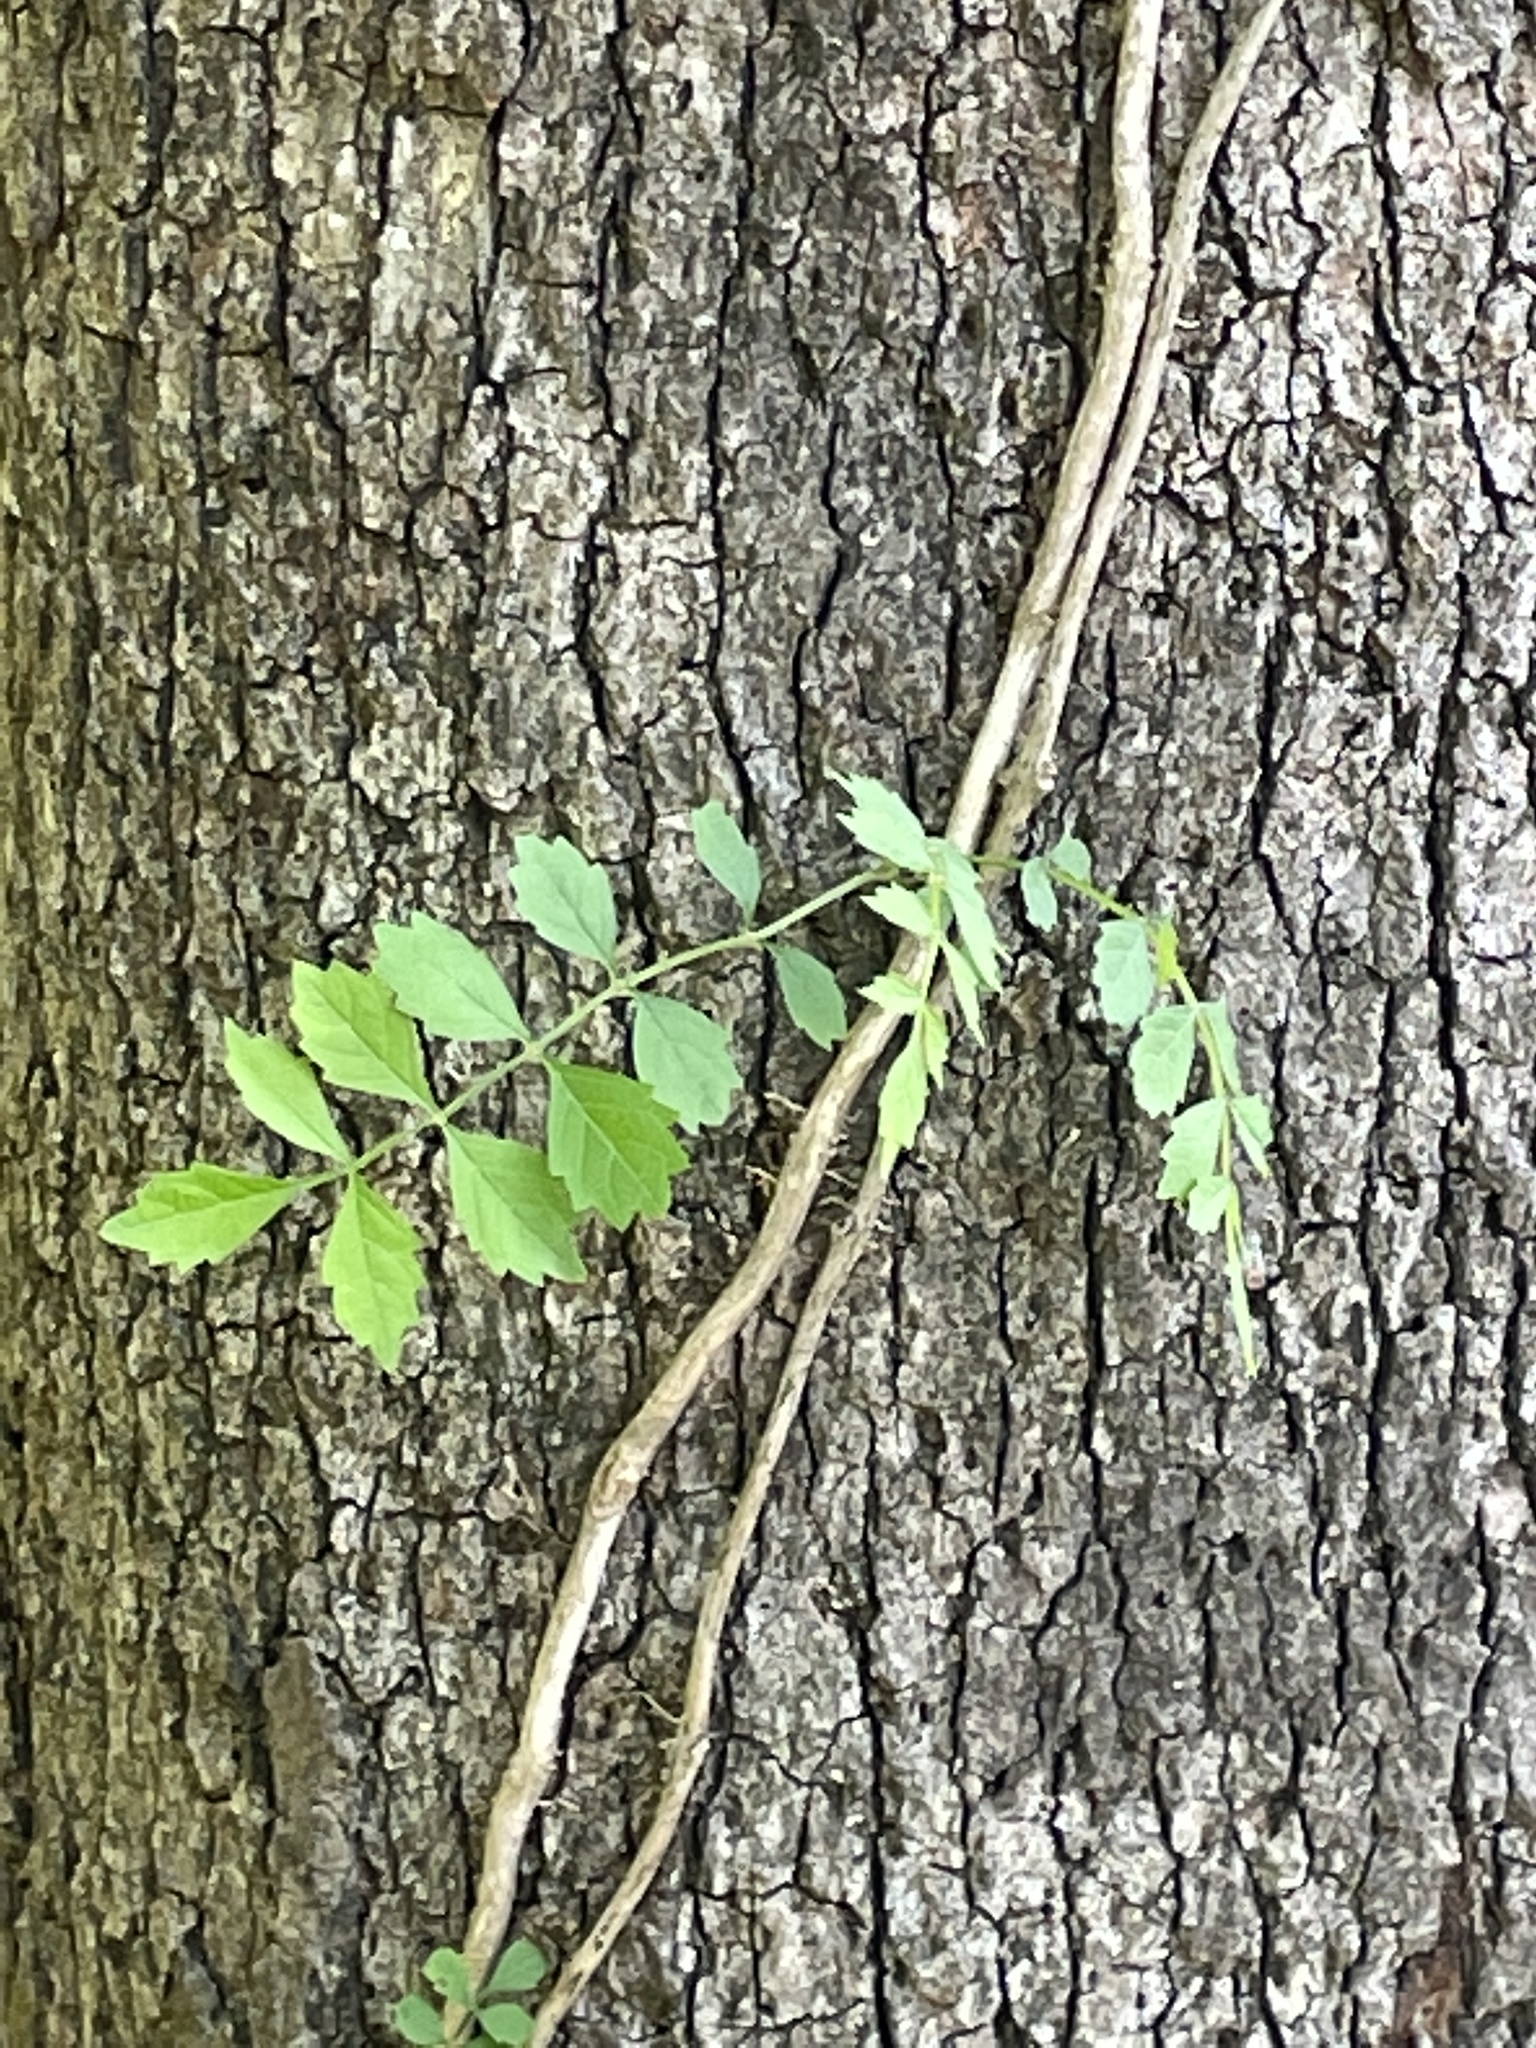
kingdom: Plantae
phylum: Tracheophyta
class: Magnoliopsida
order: Lamiales
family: Bignoniaceae
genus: Campsis
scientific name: Campsis radicans
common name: Trumpet-creeper
